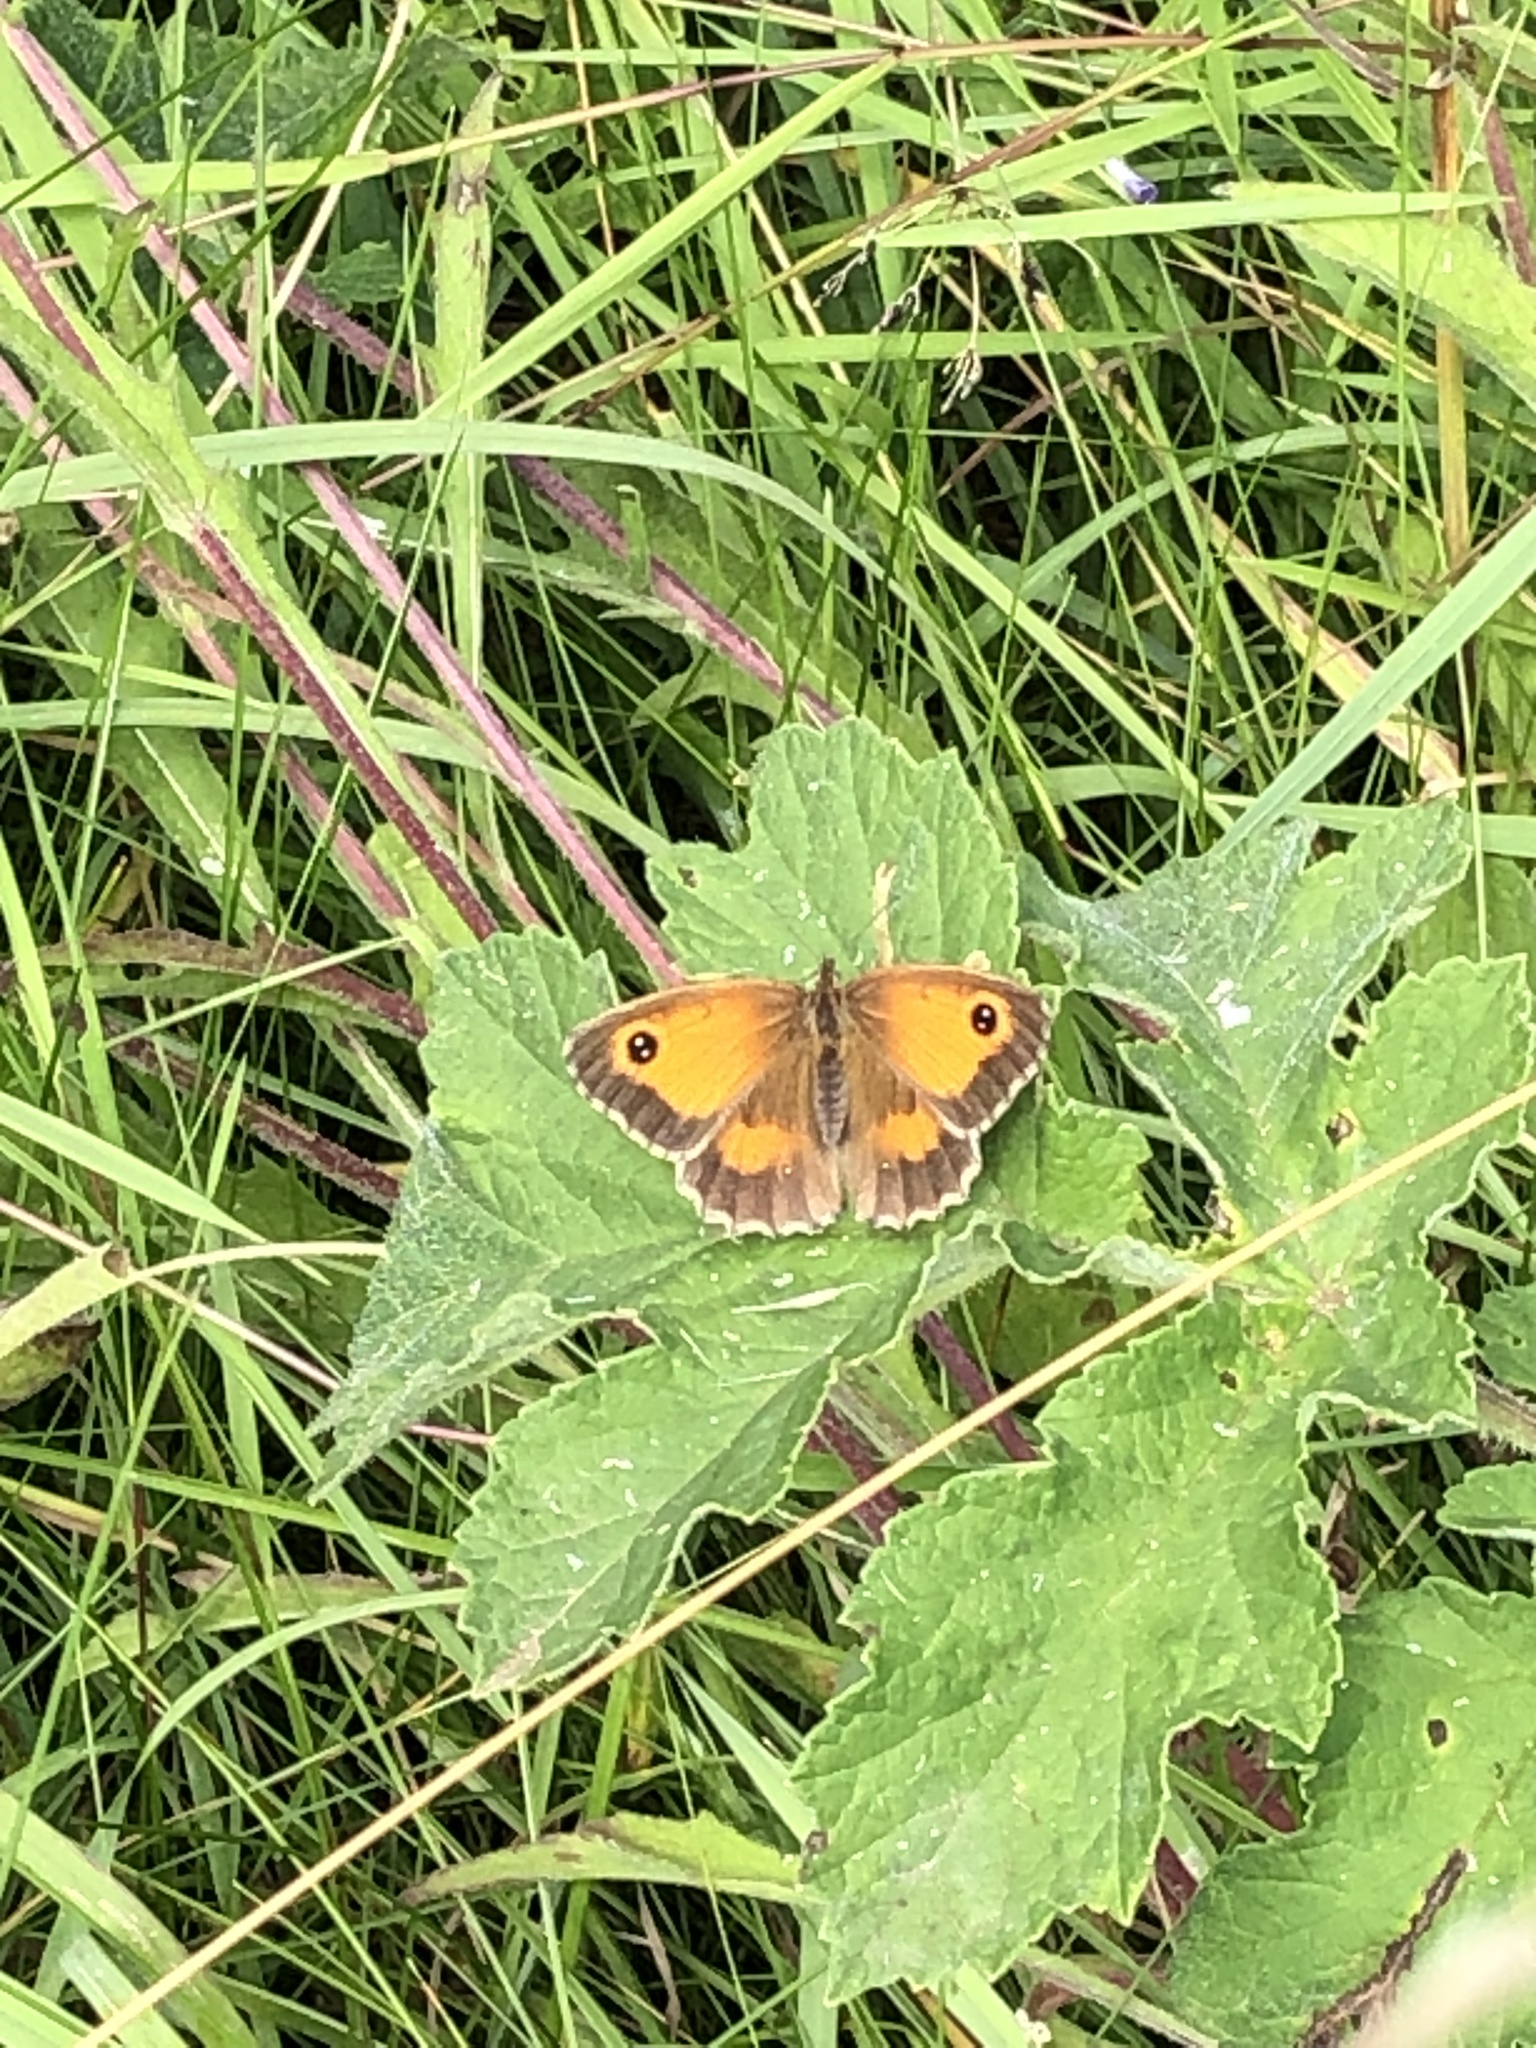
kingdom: Animalia
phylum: Arthropoda
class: Insecta
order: Lepidoptera
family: Nymphalidae
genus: Pyronia
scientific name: Pyronia tithonus
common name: Gatekeeper
